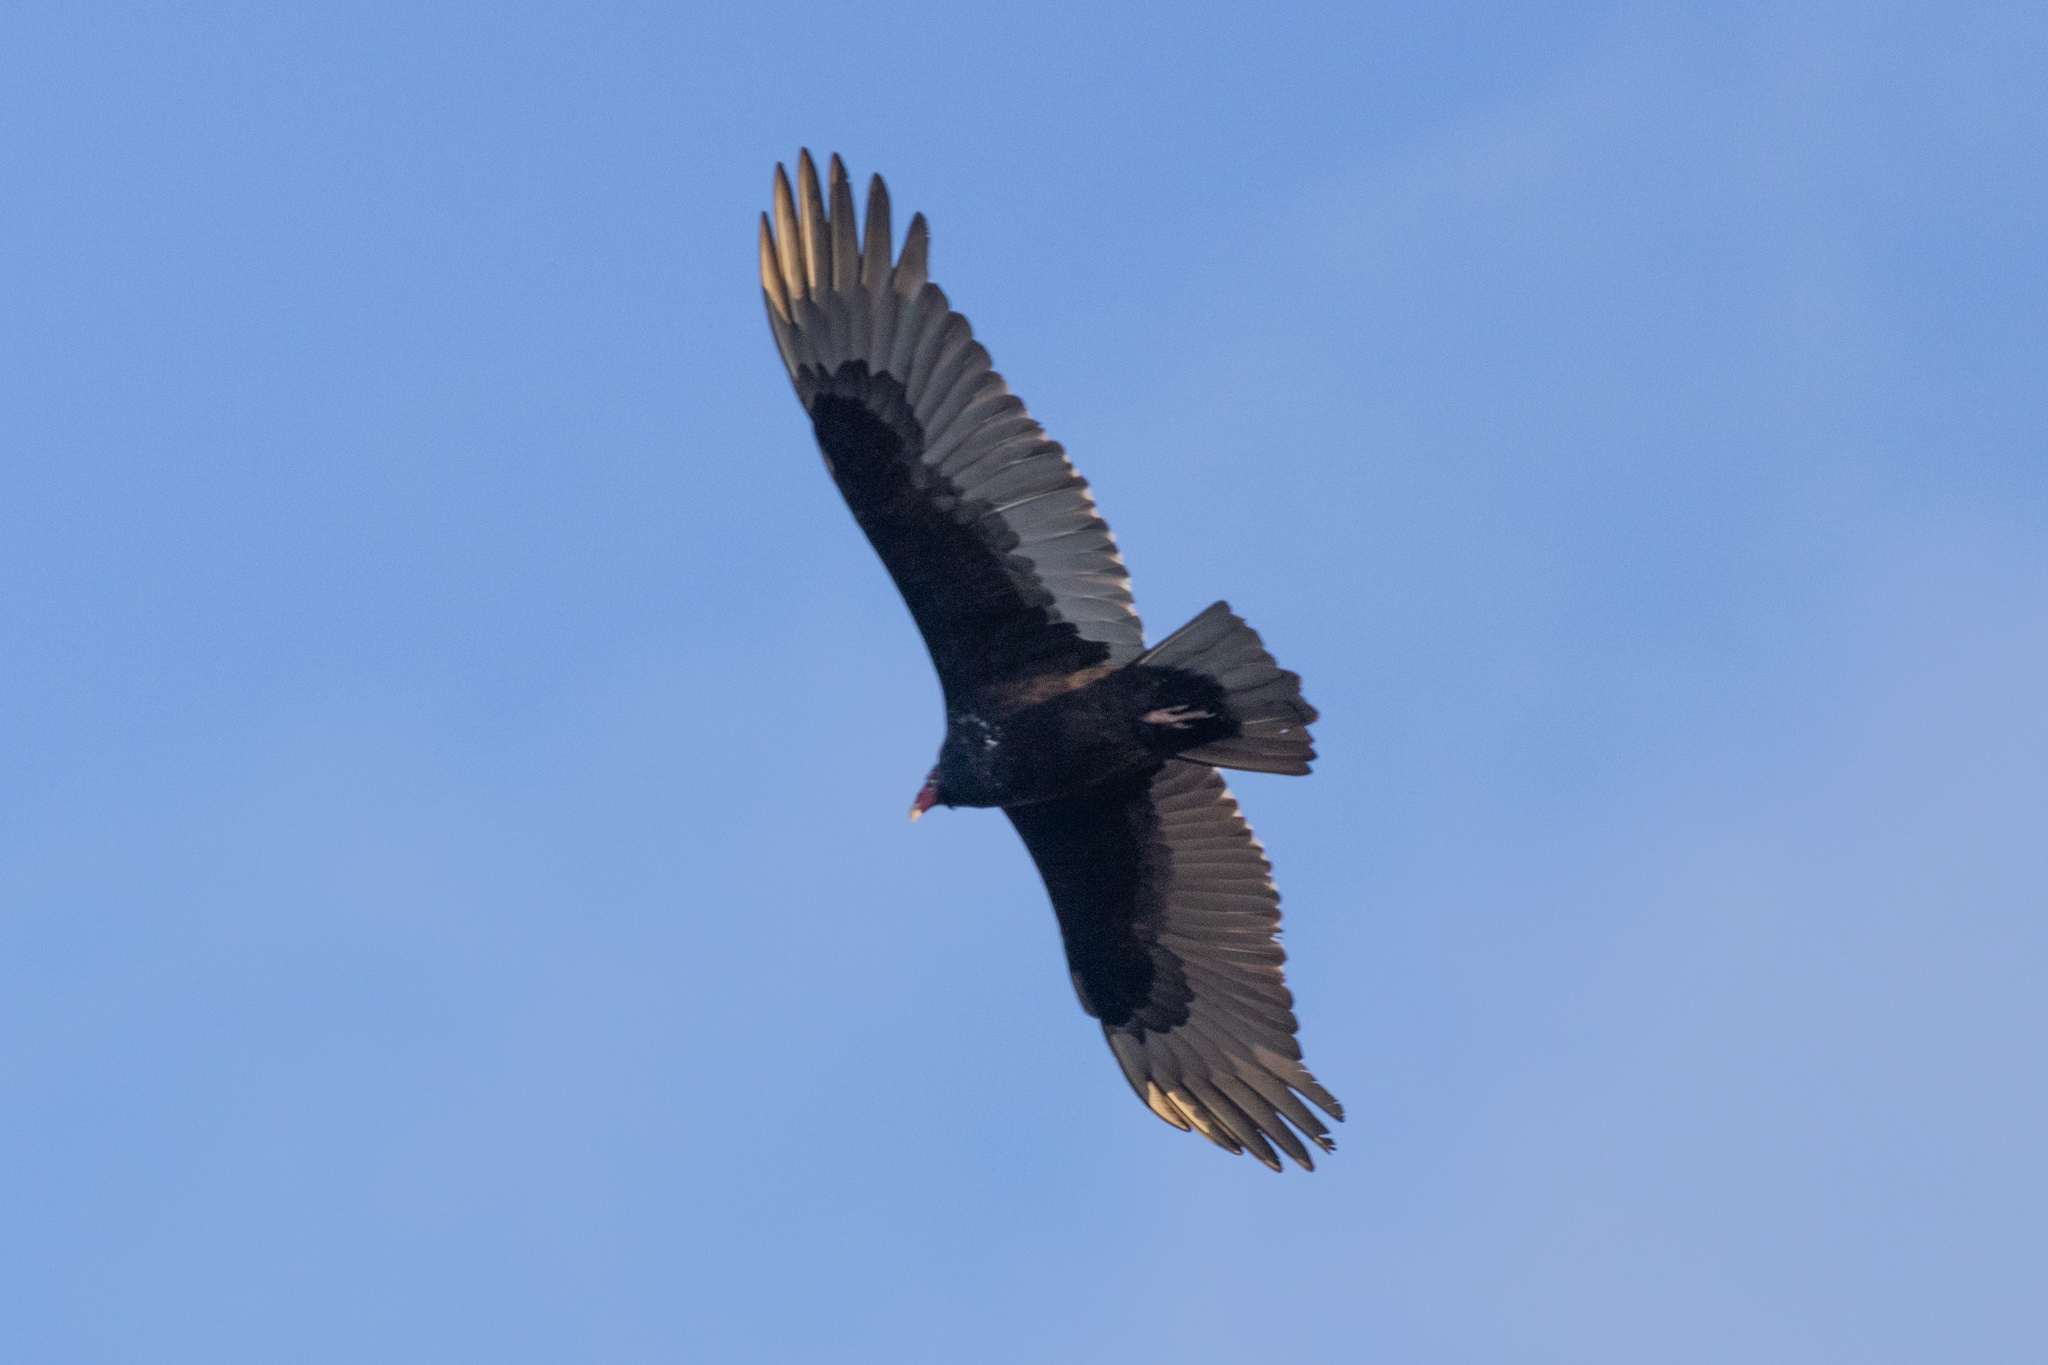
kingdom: Animalia
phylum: Chordata
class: Aves
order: Accipitriformes
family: Cathartidae
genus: Cathartes
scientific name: Cathartes aura
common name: Turkey vulture
